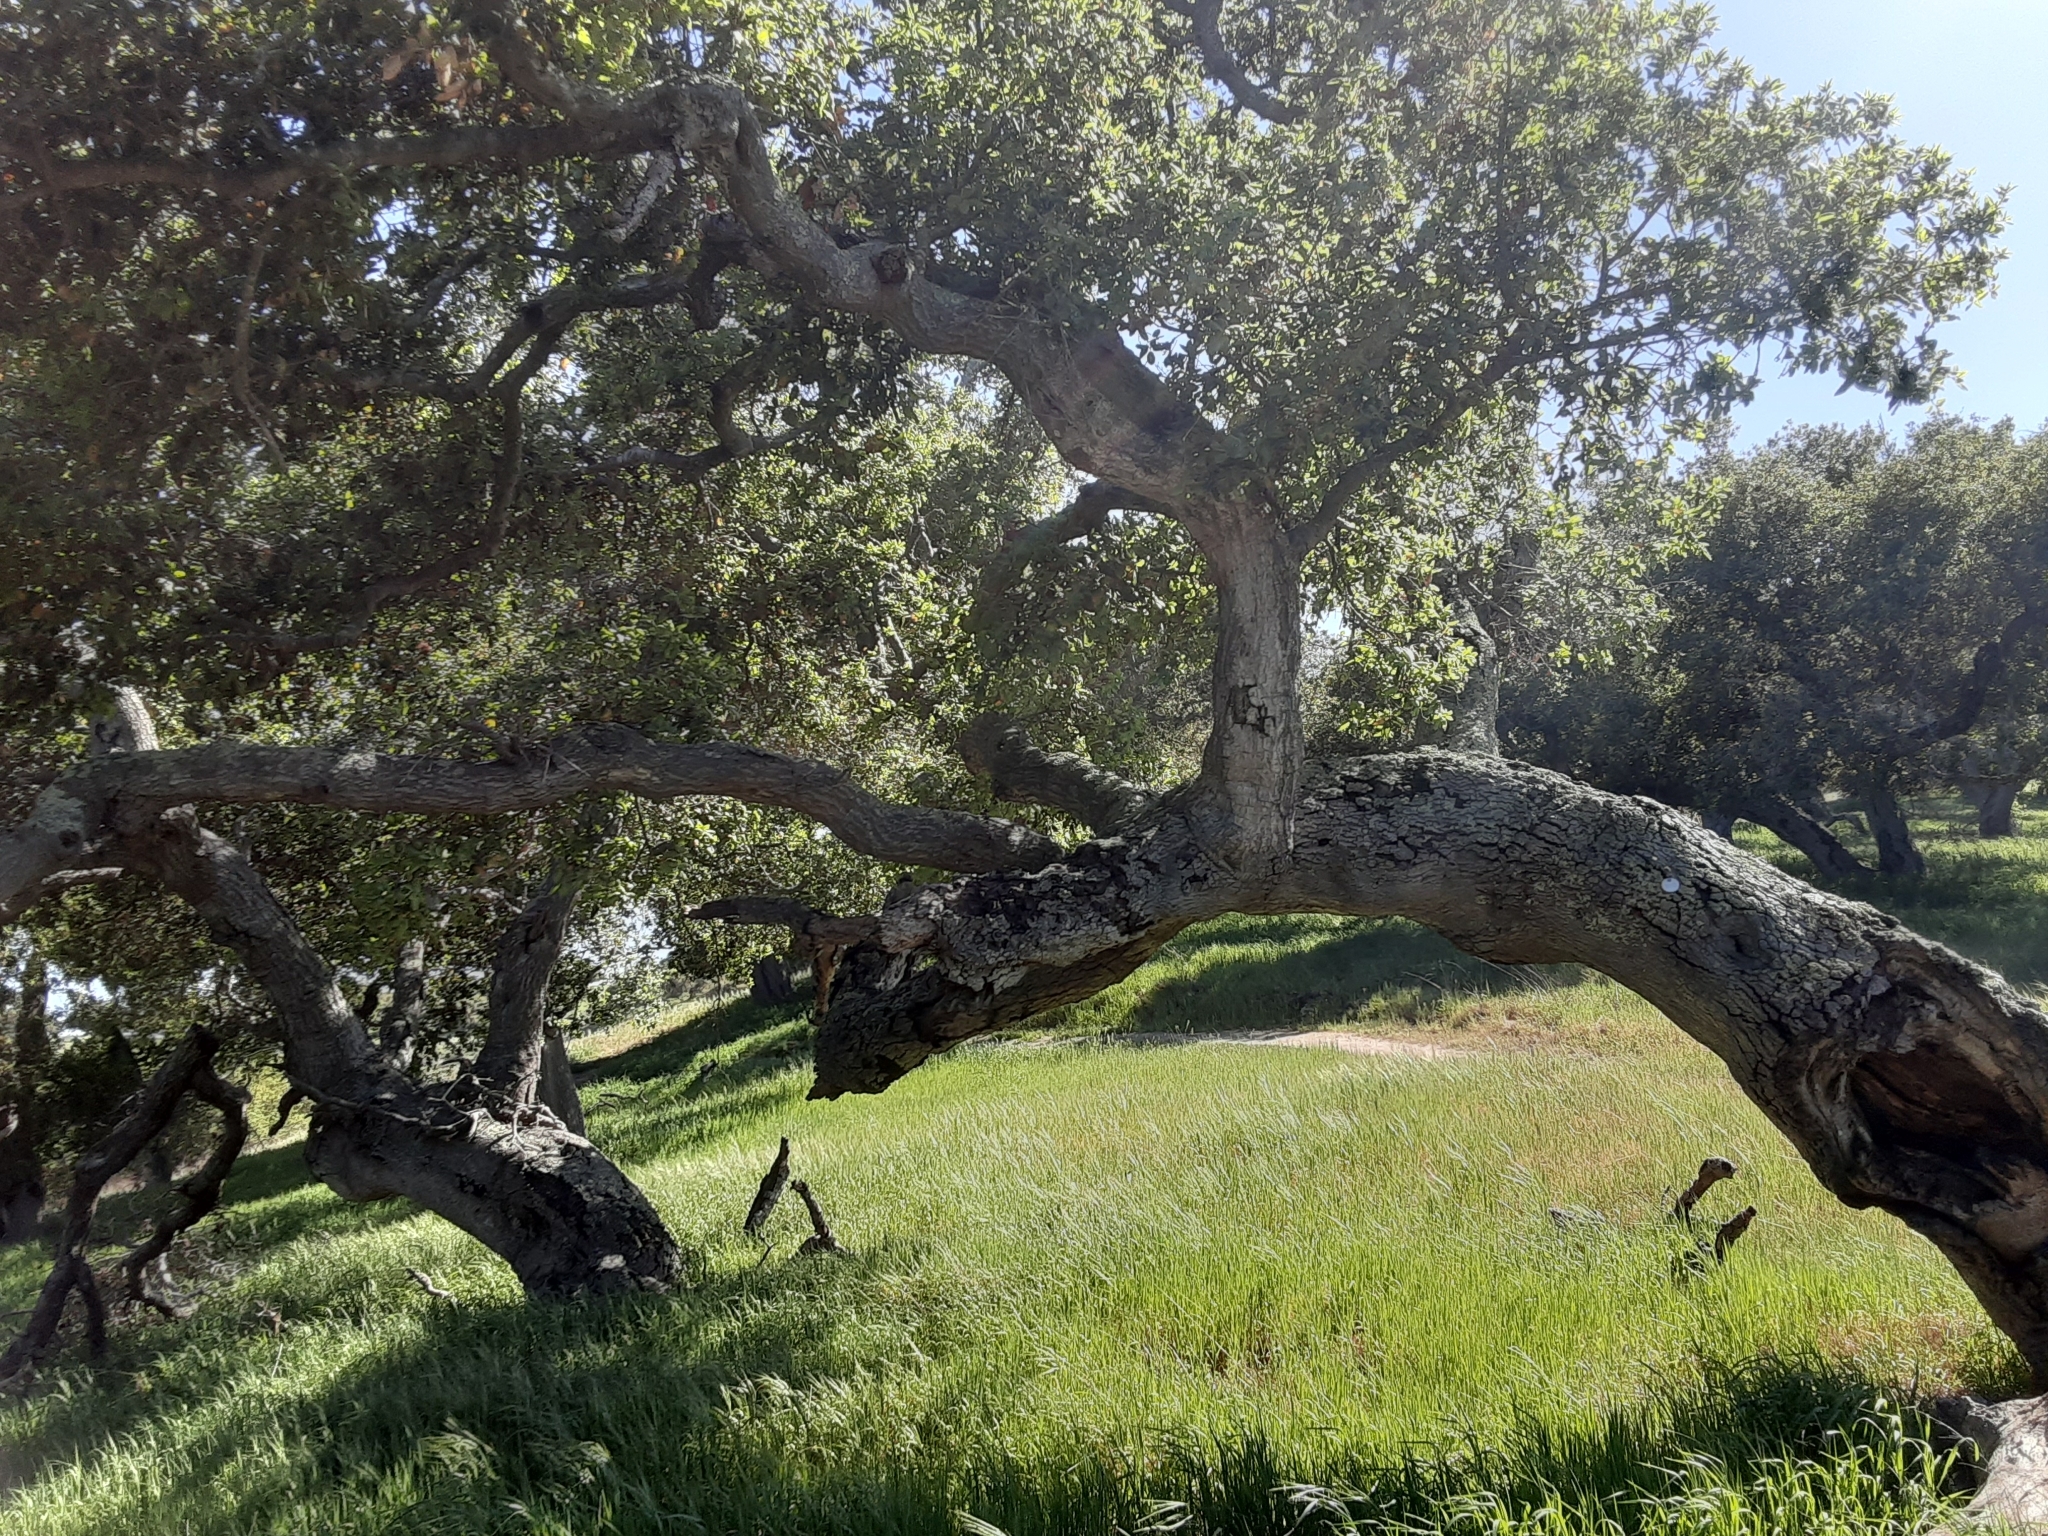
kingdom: Plantae
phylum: Tracheophyta
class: Magnoliopsida
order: Fagales
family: Fagaceae
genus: Quercus
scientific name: Quercus agrifolia
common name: California live oak
